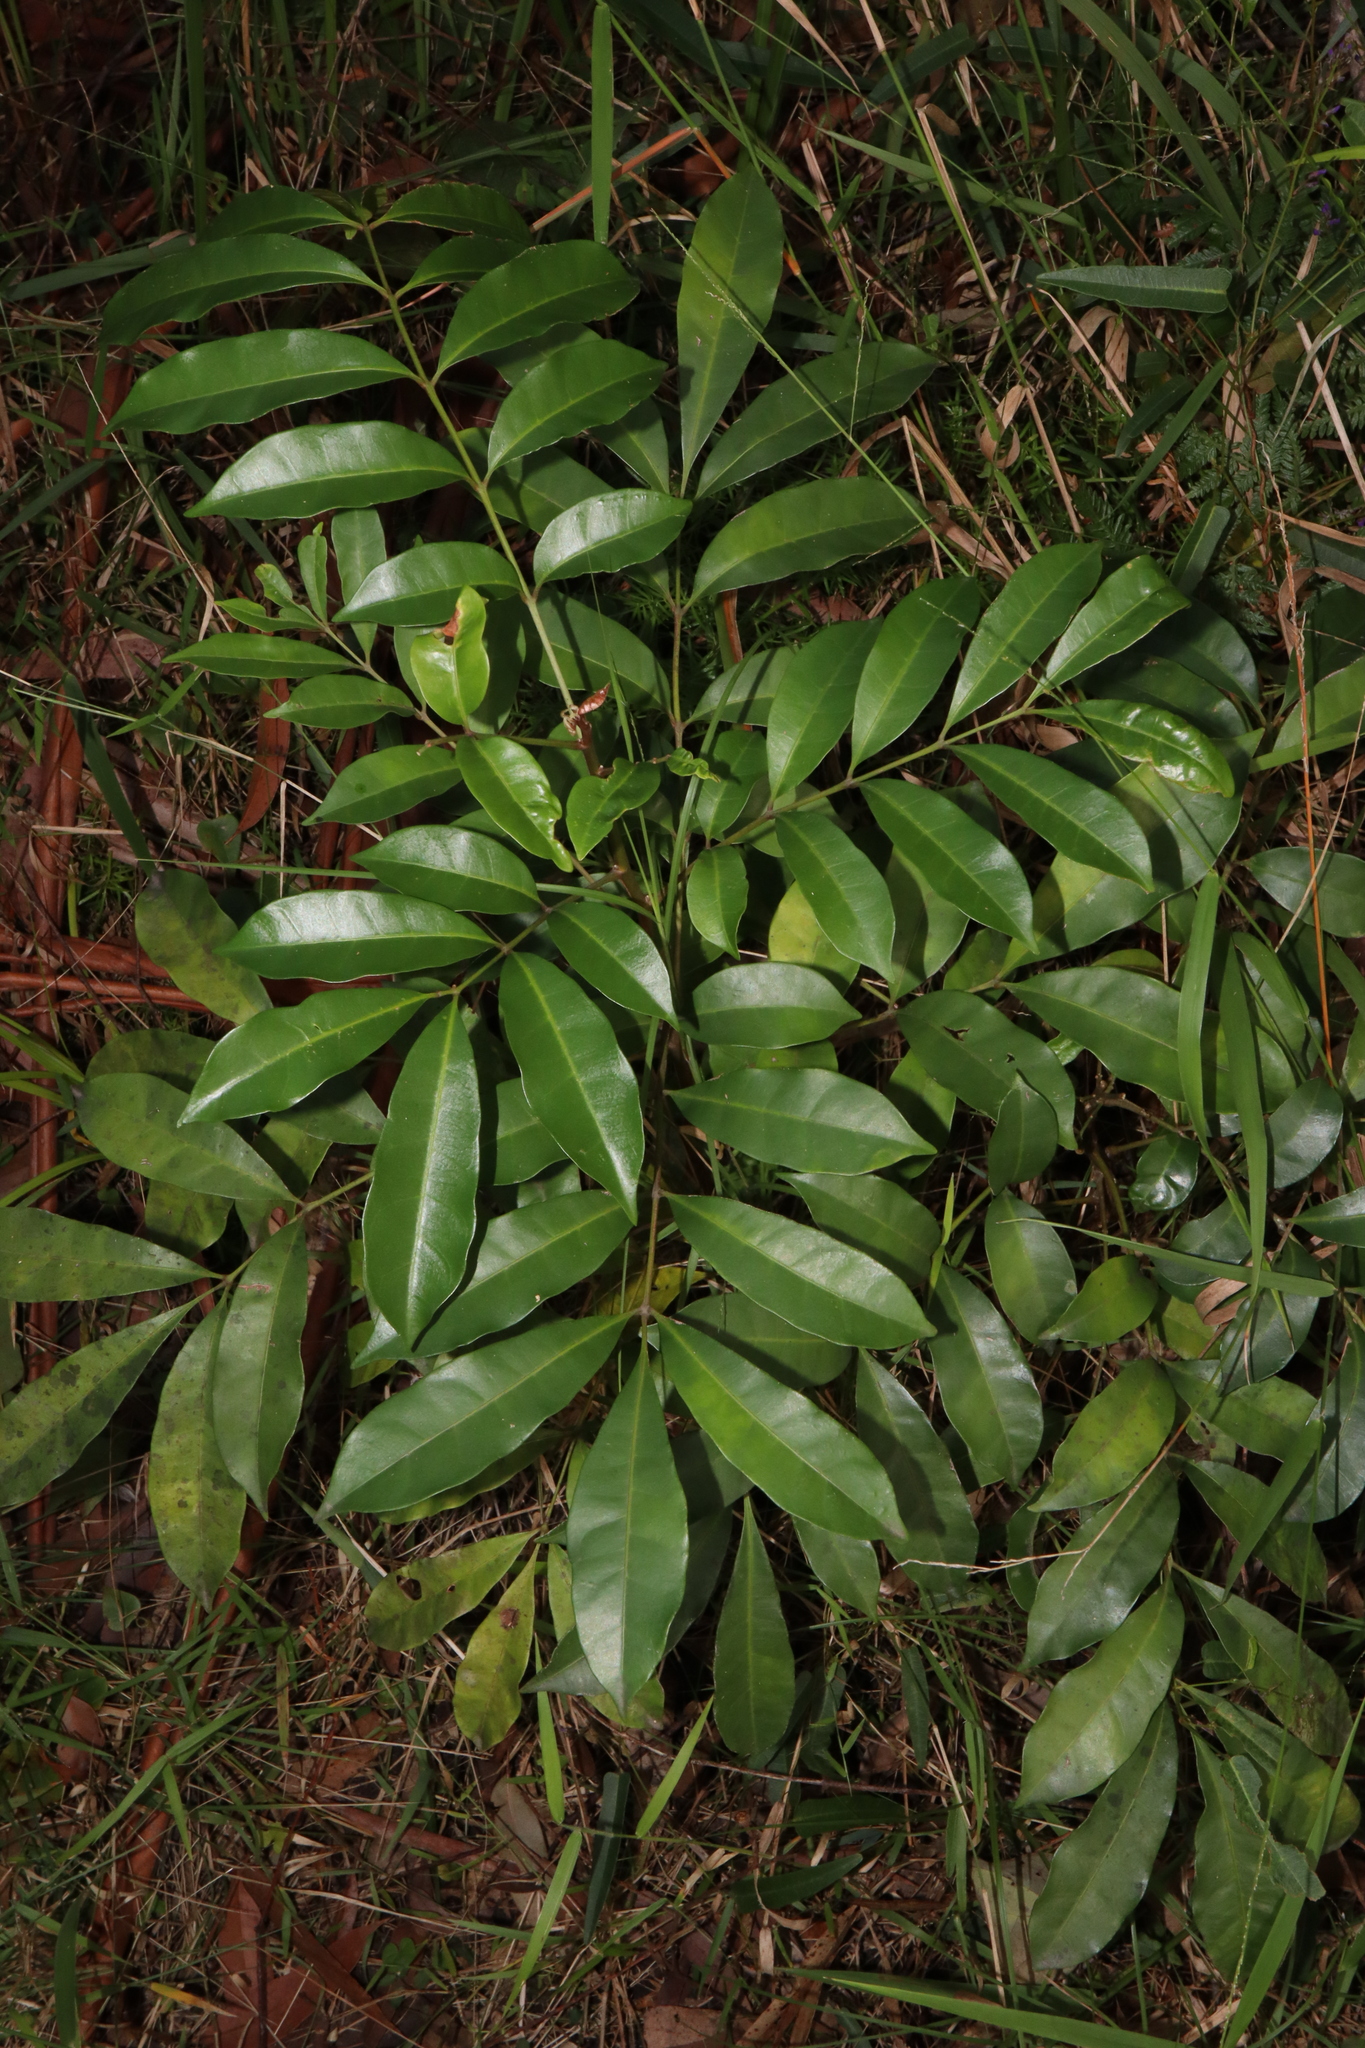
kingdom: Plantae
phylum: Tracheophyta
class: Magnoliopsida
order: Sapindales
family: Meliaceae
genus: Synoum
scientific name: Synoum glandulosum
